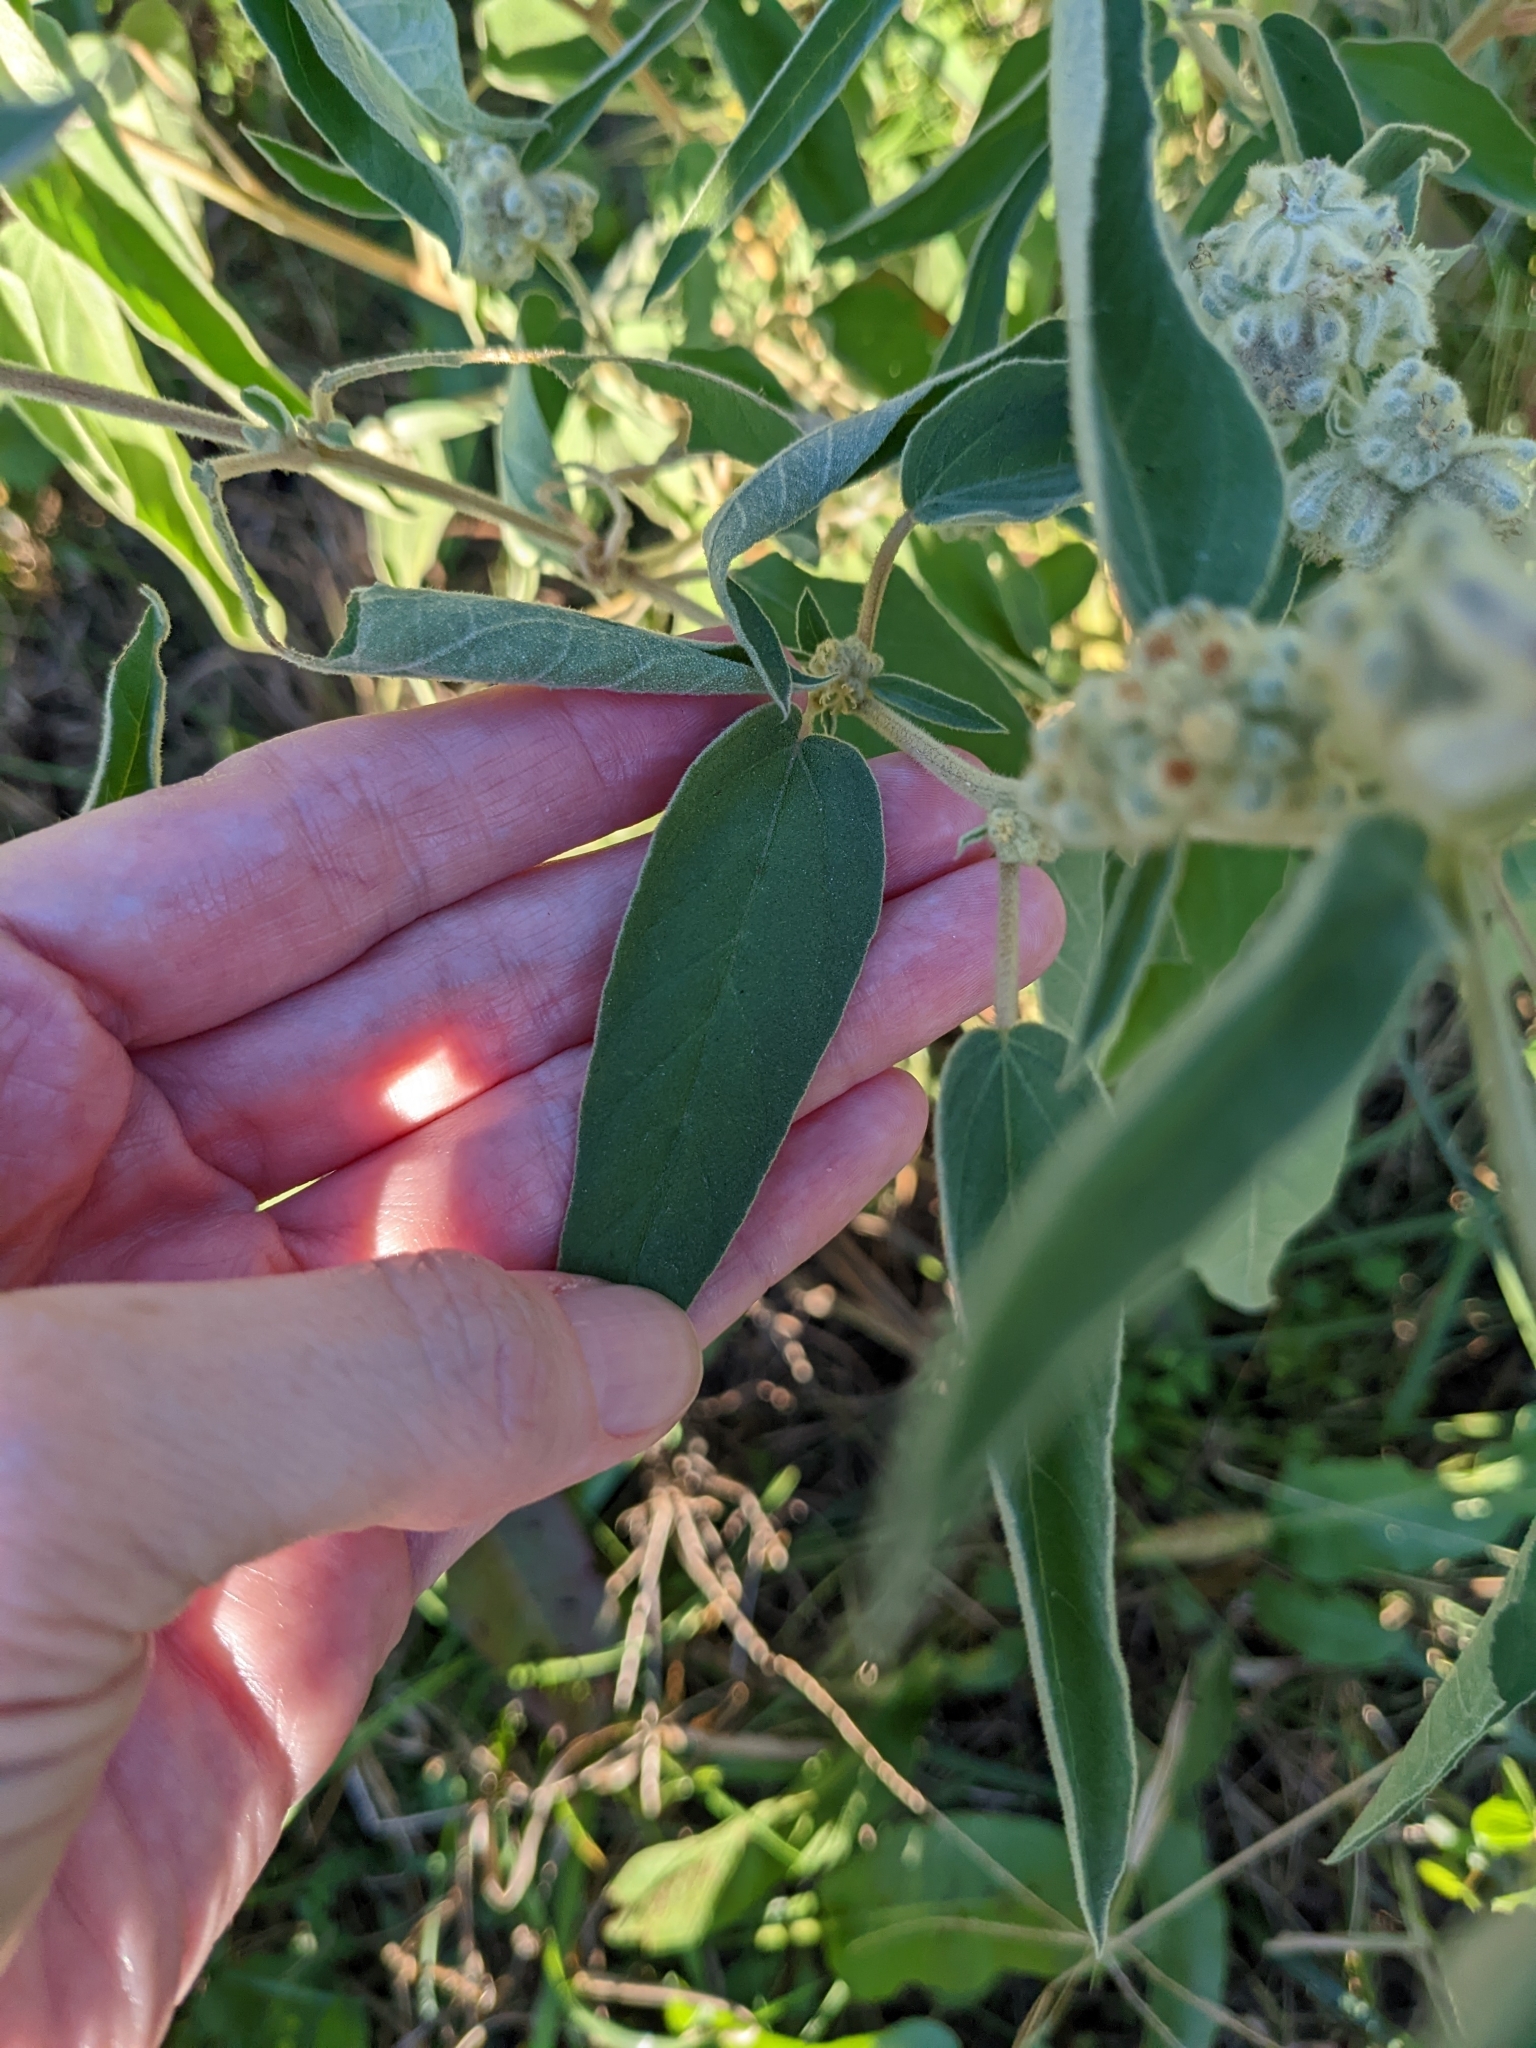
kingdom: Plantae
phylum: Tracheophyta
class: Magnoliopsida
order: Malpighiales
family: Euphorbiaceae
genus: Croton
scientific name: Croton lindheimeri
